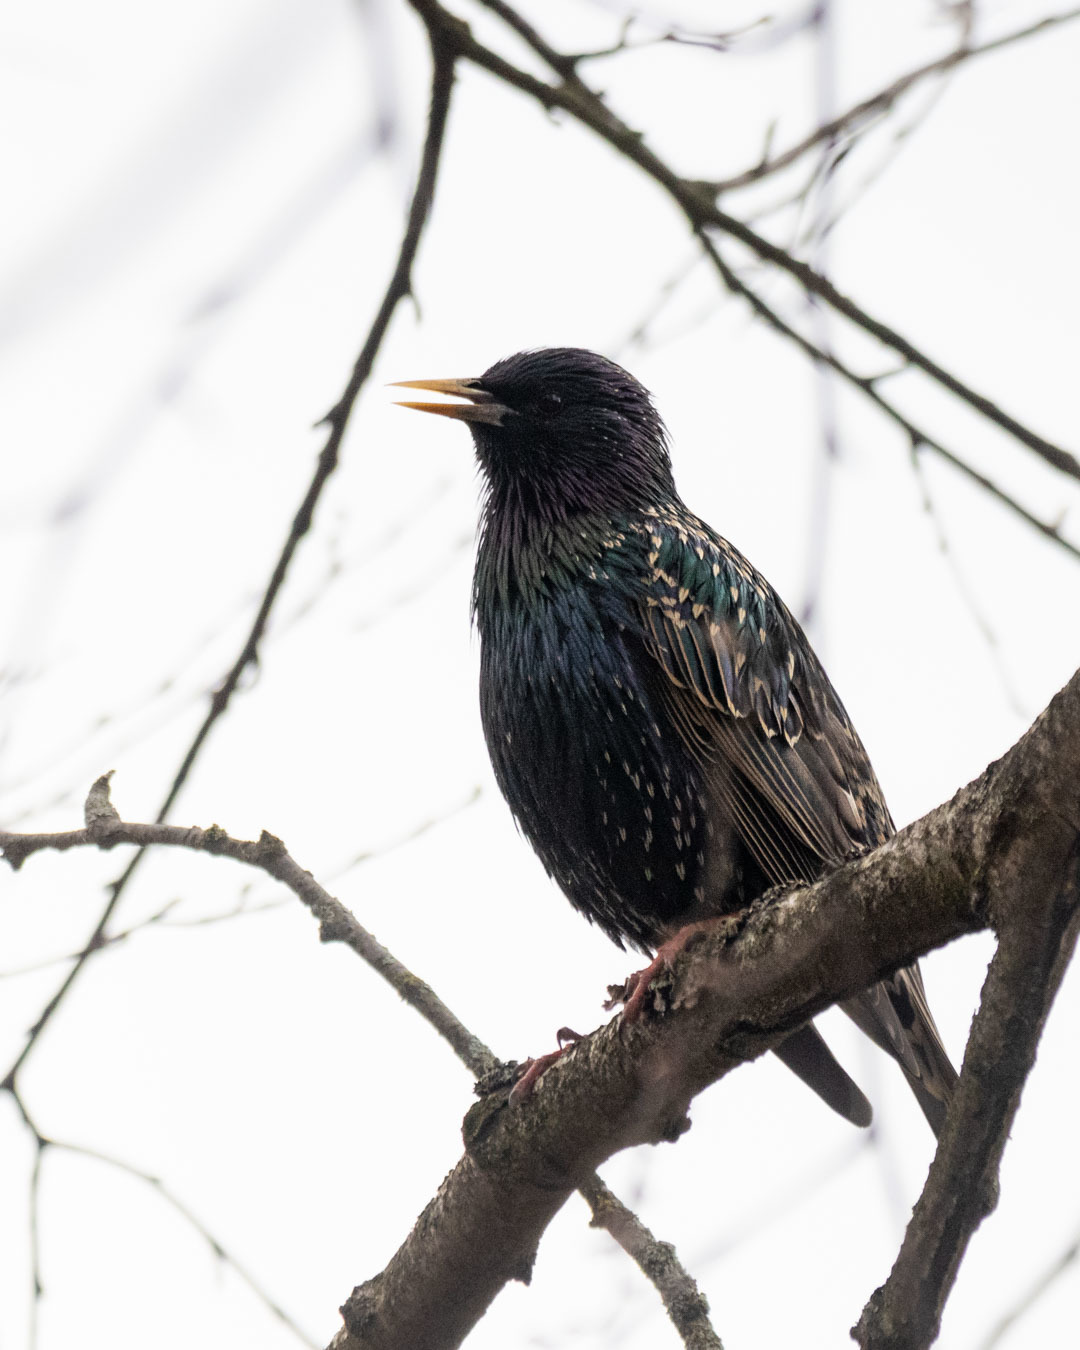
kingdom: Animalia
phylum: Chordata
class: Aves
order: Passeriformes
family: Sturnidae
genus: Sturnus
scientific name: Sturnus vulgaris
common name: Common starling
